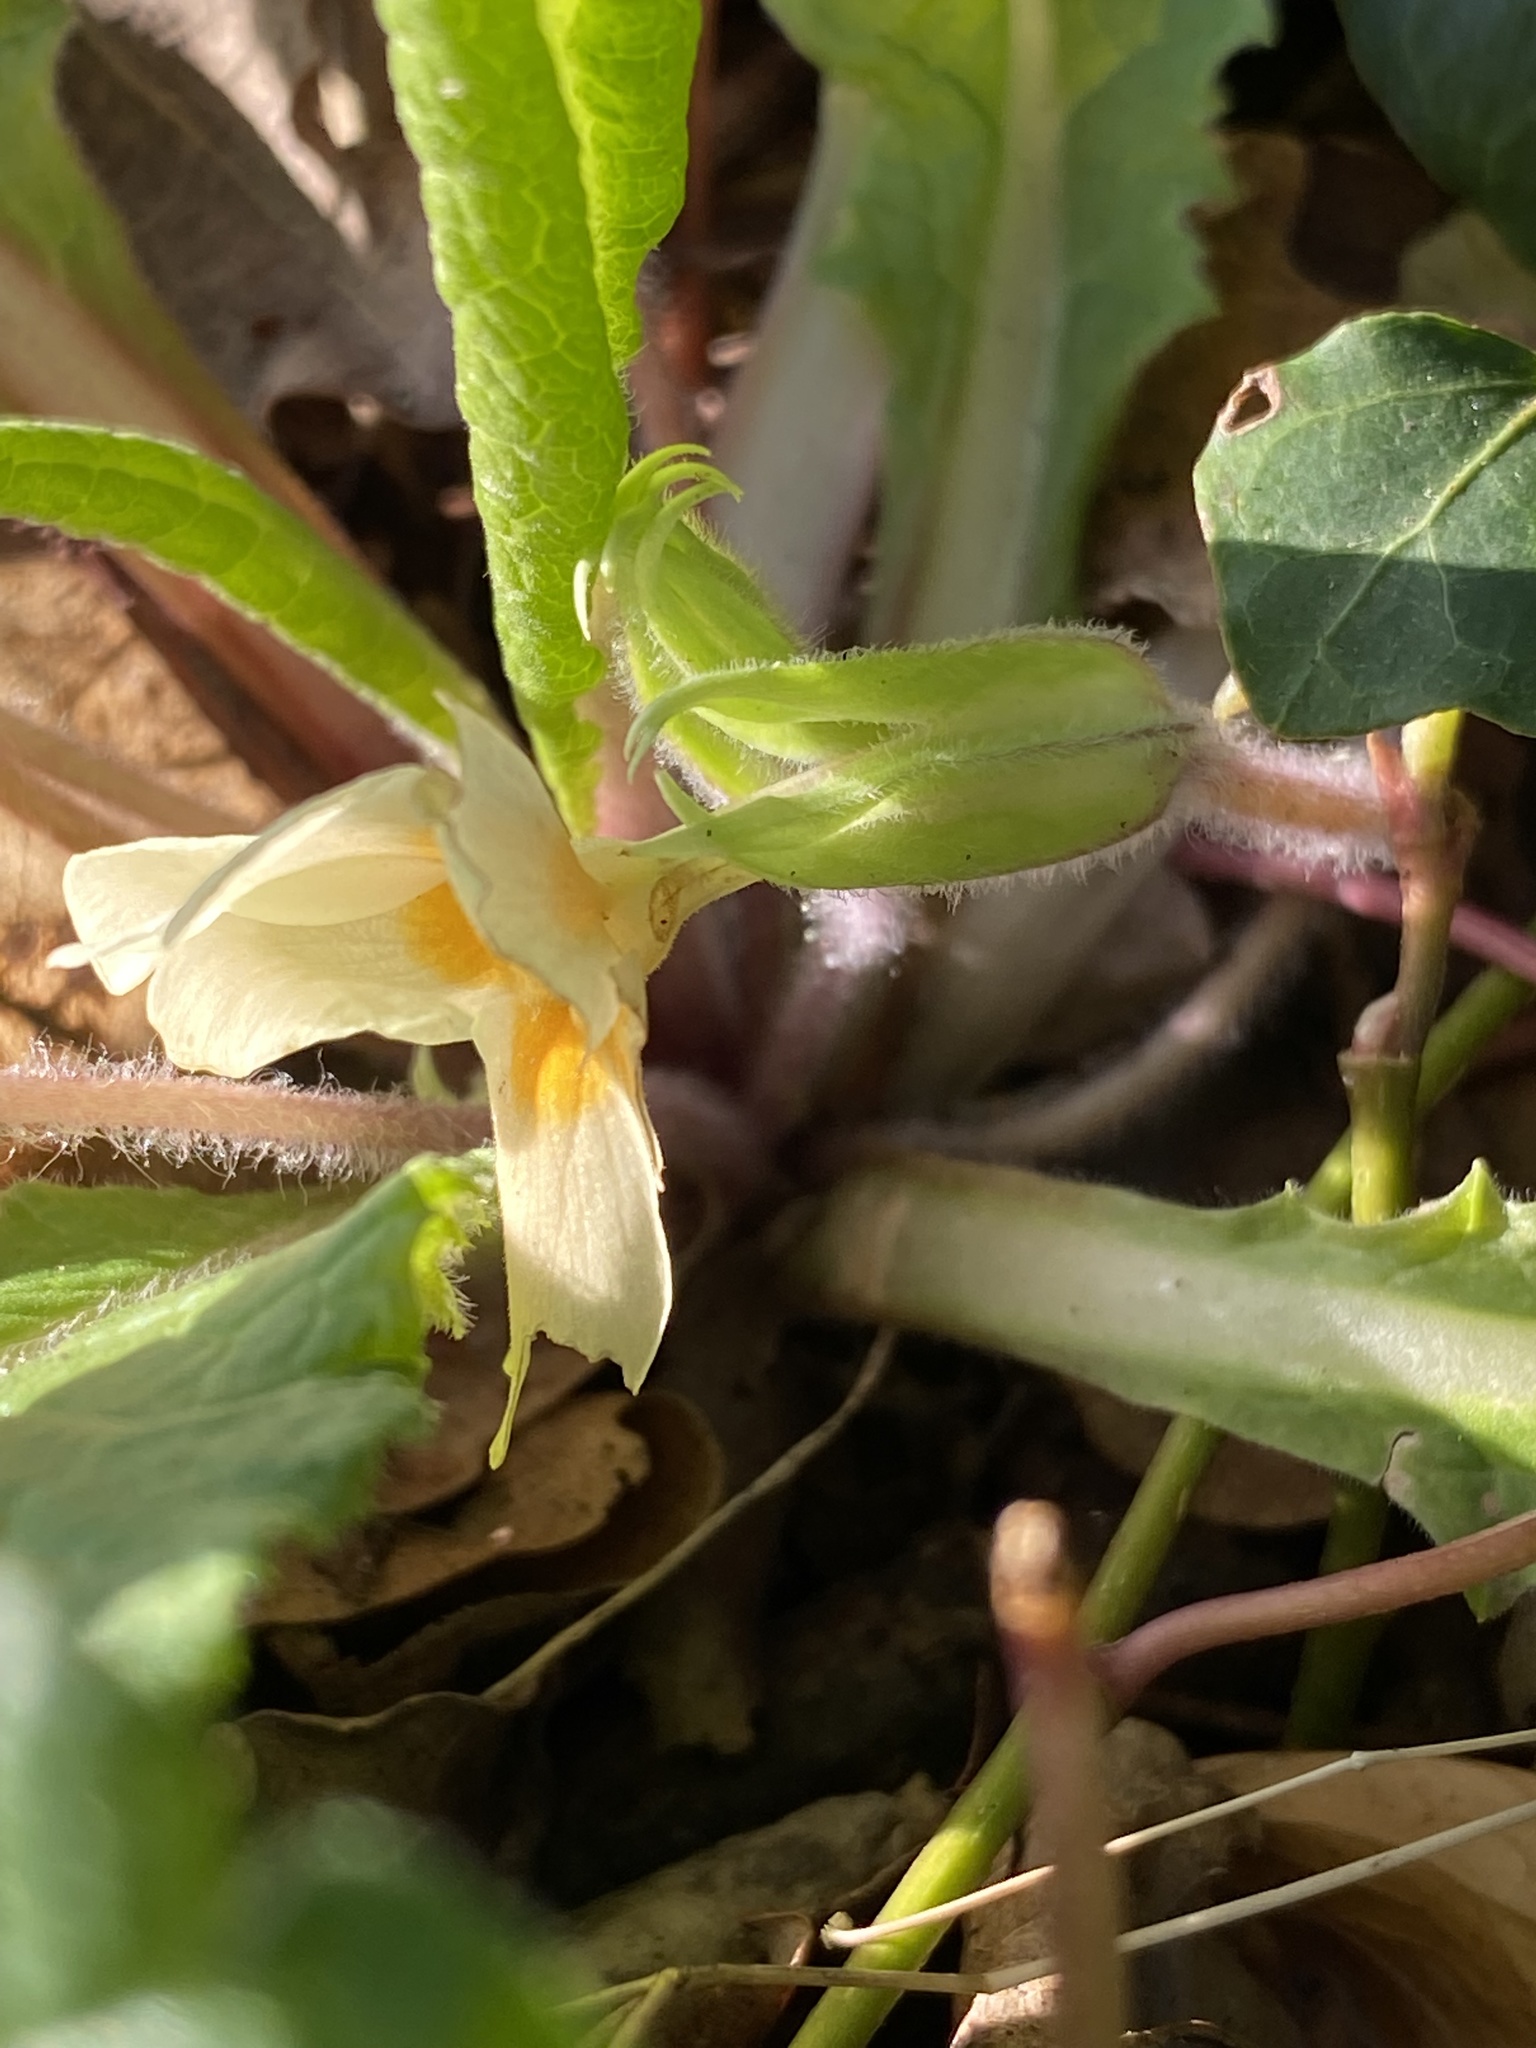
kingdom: Plantae
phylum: Tracheophyta
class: Magnoliopsida
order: Ericales
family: Primulaceae
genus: Primula
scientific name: Primula vulgaris
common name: Primrose
